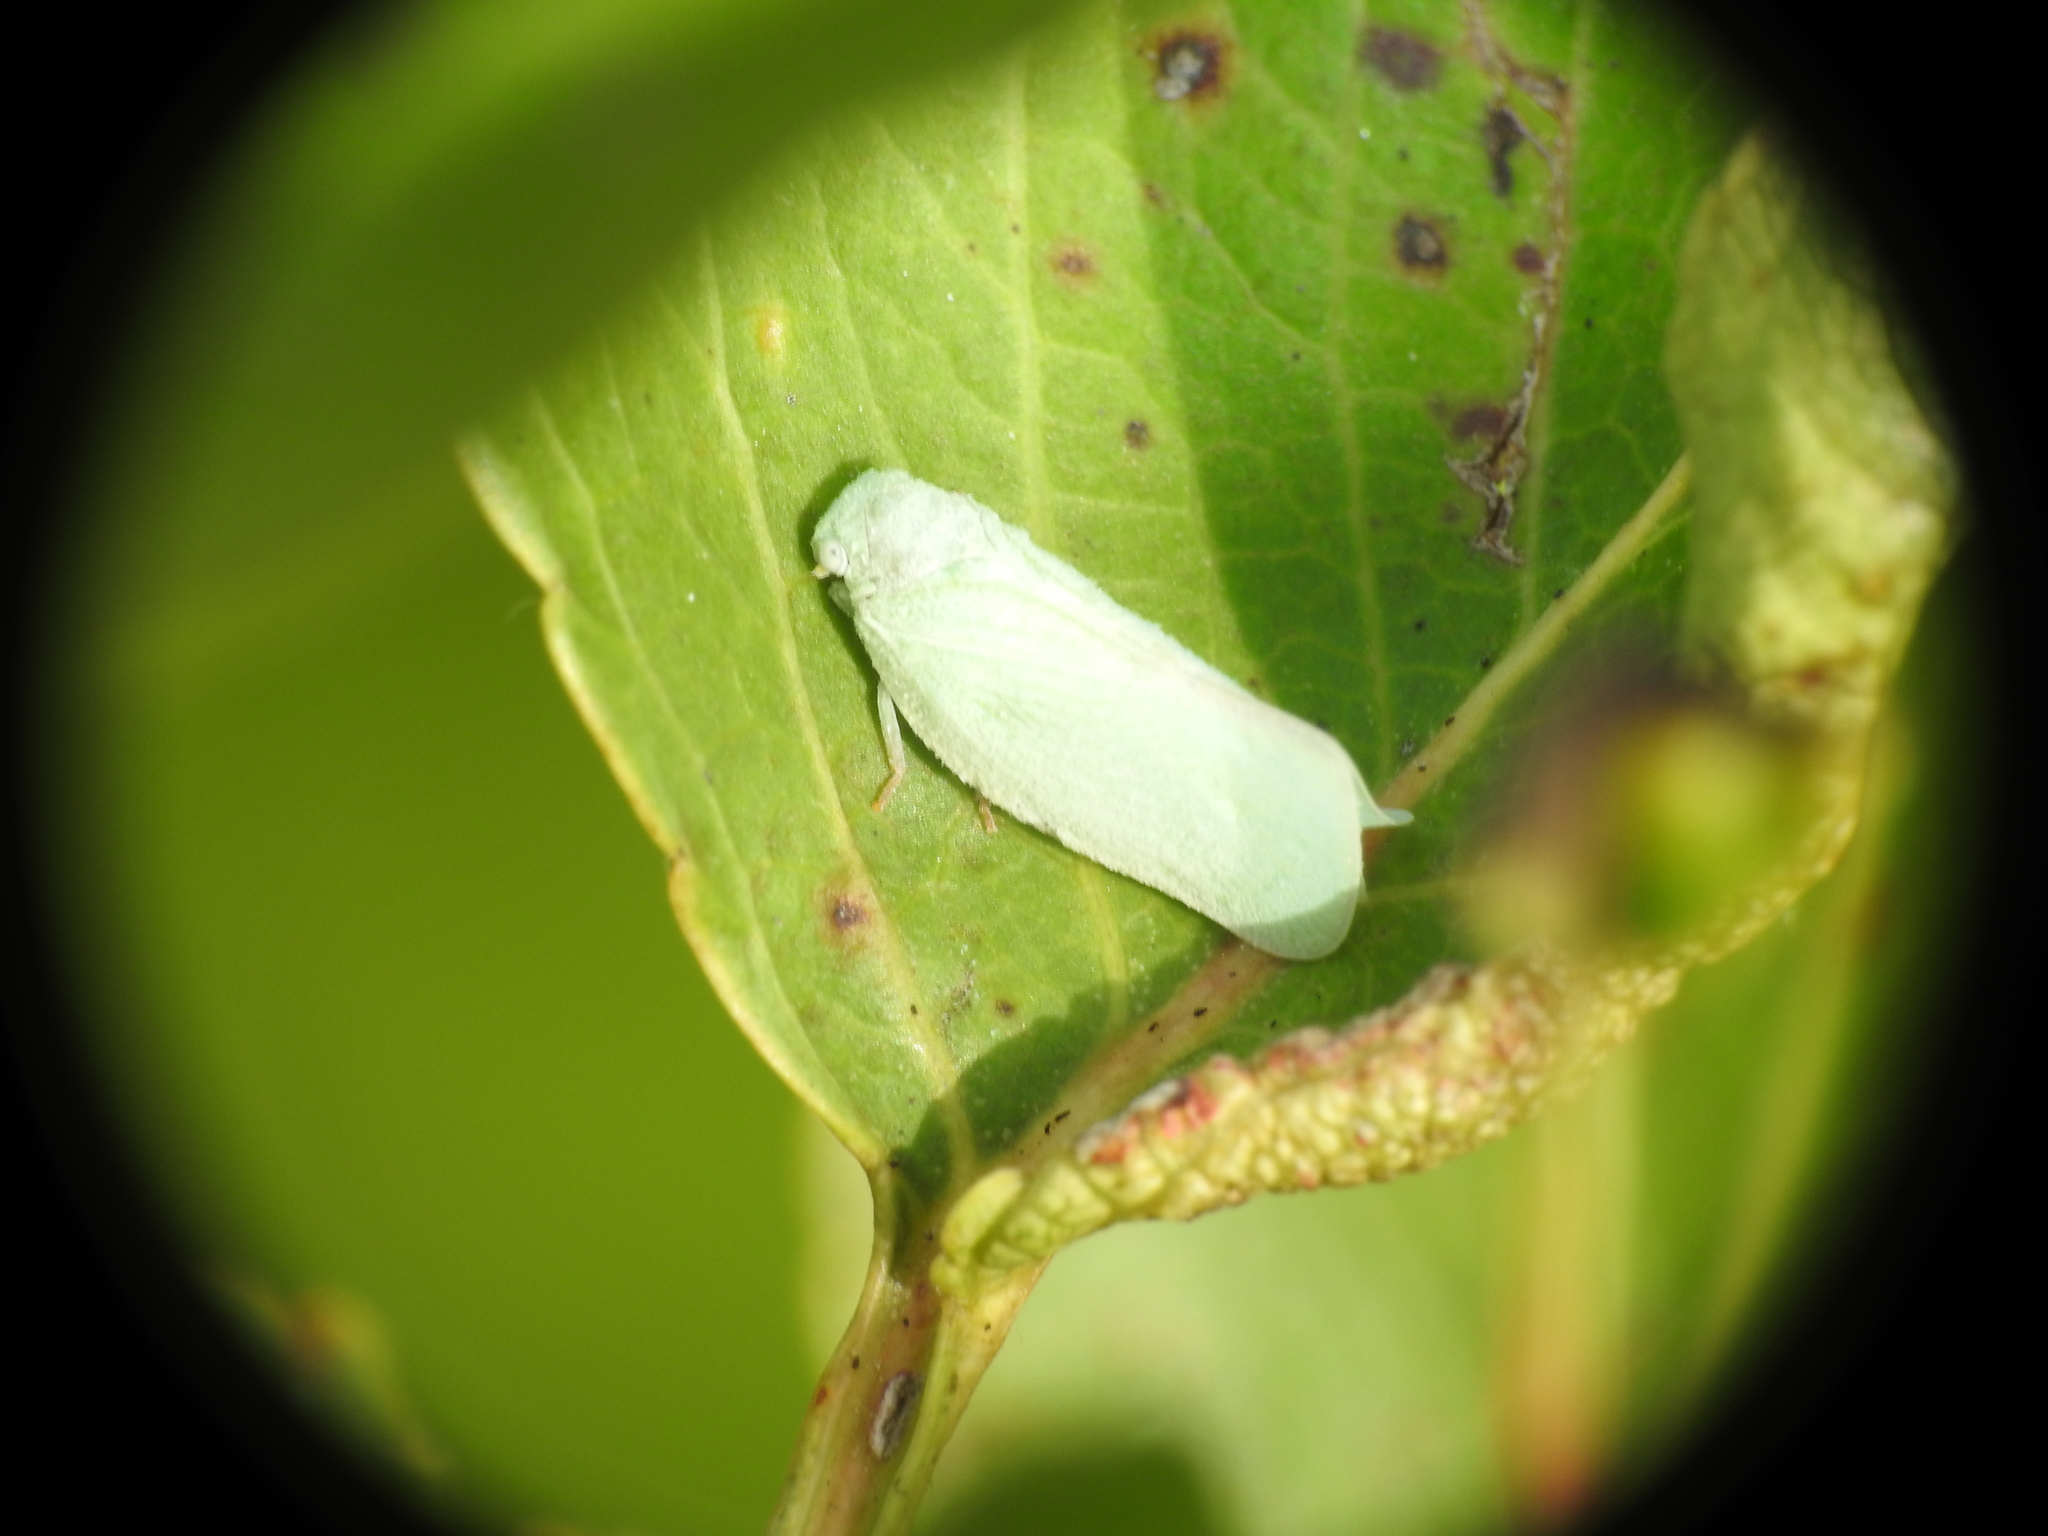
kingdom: Animalia
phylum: Arthropoda
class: Insecta
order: Hemiptera
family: Flatidae
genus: Flatormenis
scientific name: Flatormenis proxima
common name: Northern flatid planthopper
